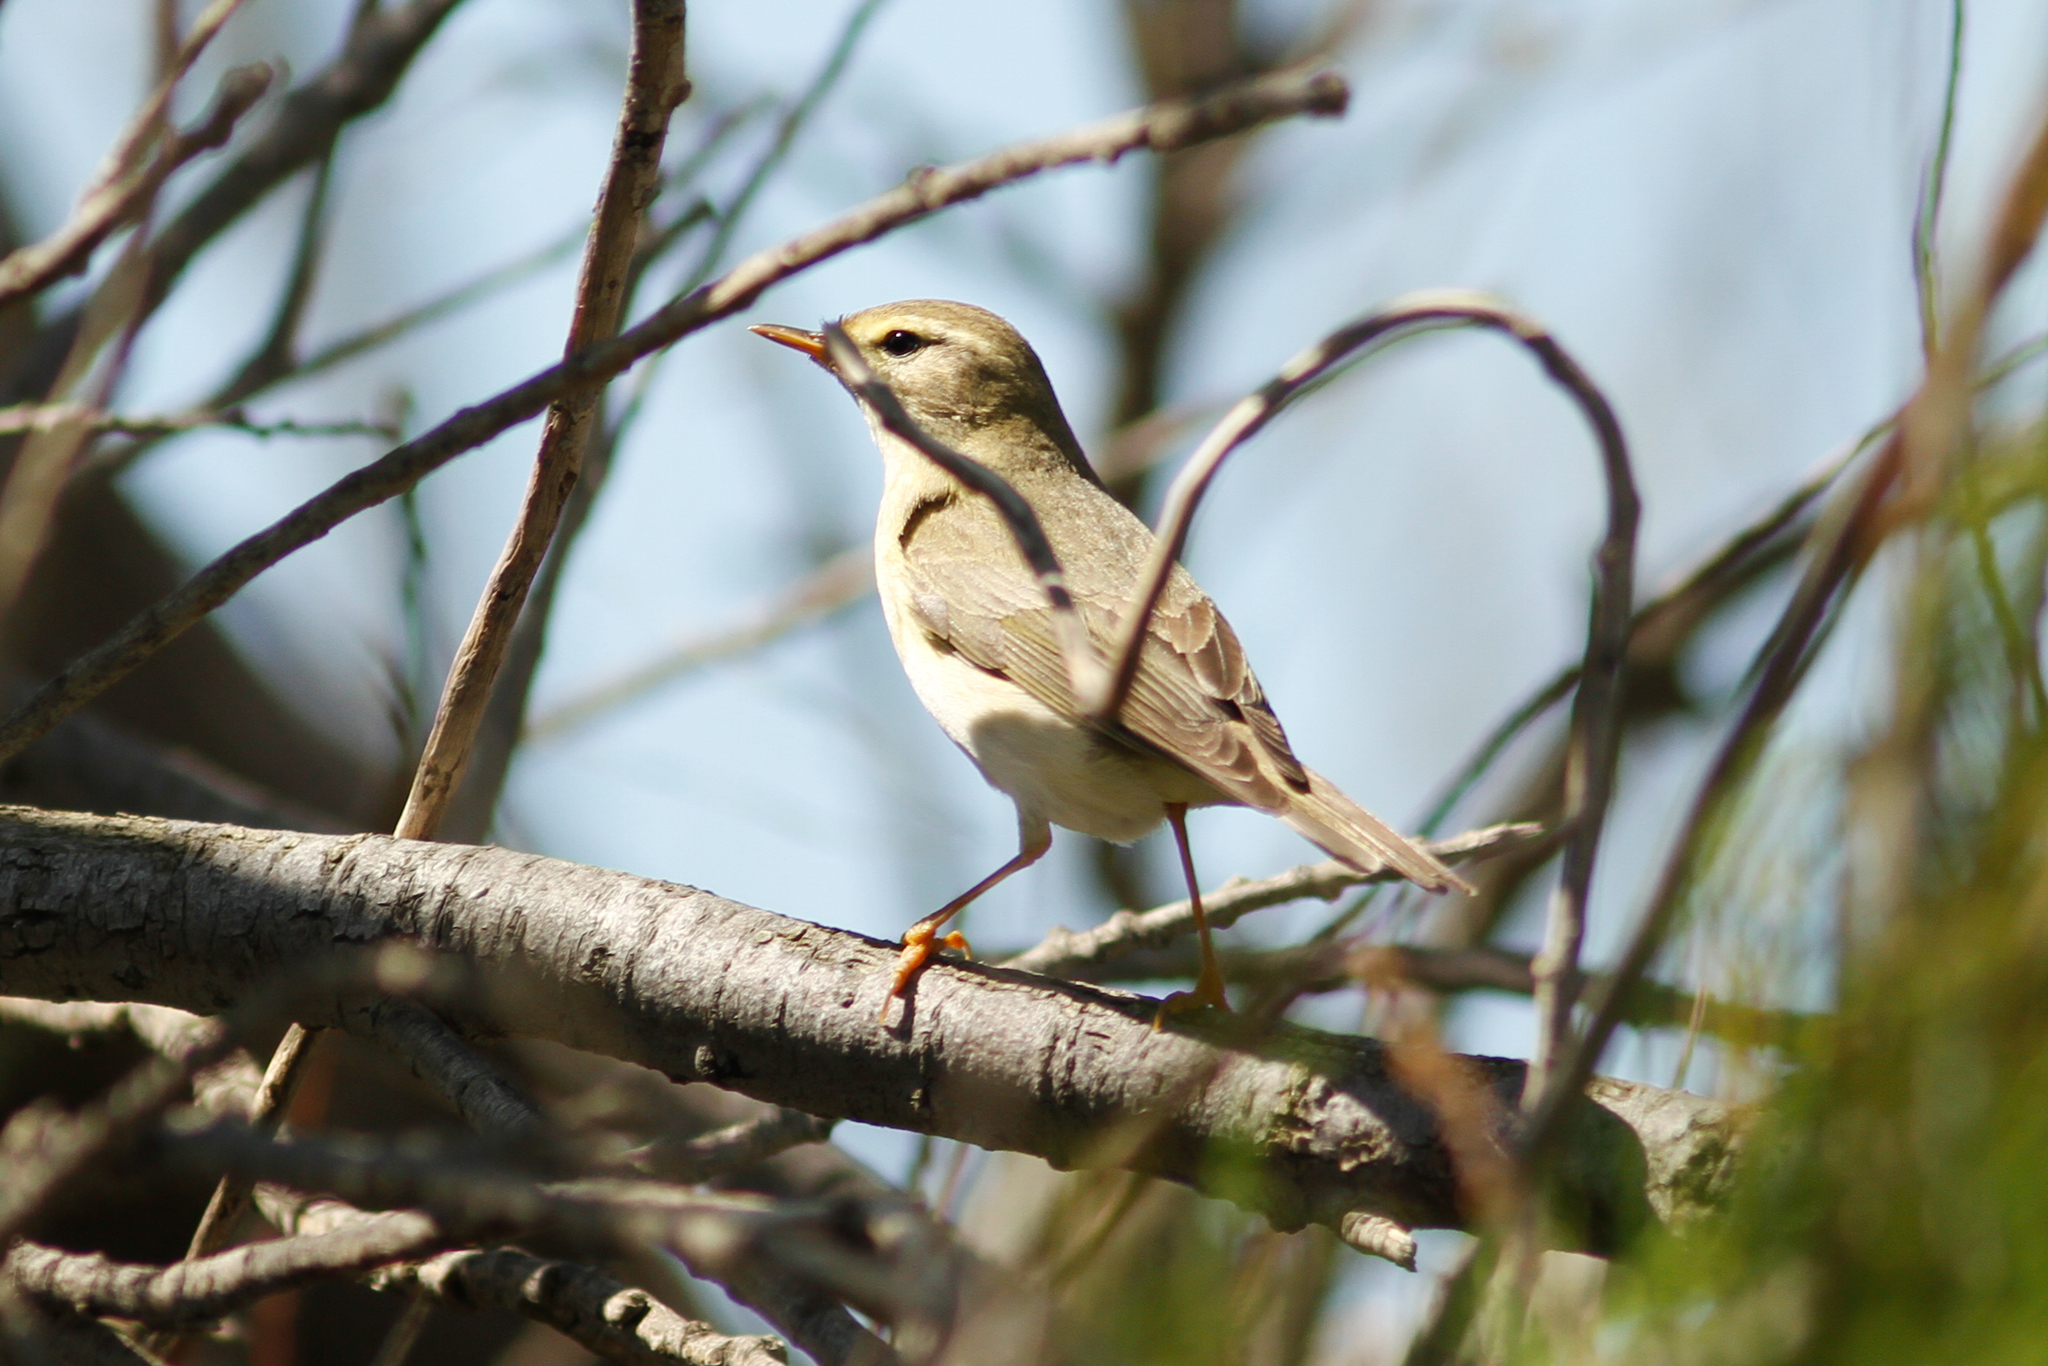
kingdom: Animalia
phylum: Chordata
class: Aves
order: Passeriformes
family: Phylloscopidae
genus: Phylloscopus
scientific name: Phylloscopus trochilus
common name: Willow warbler
